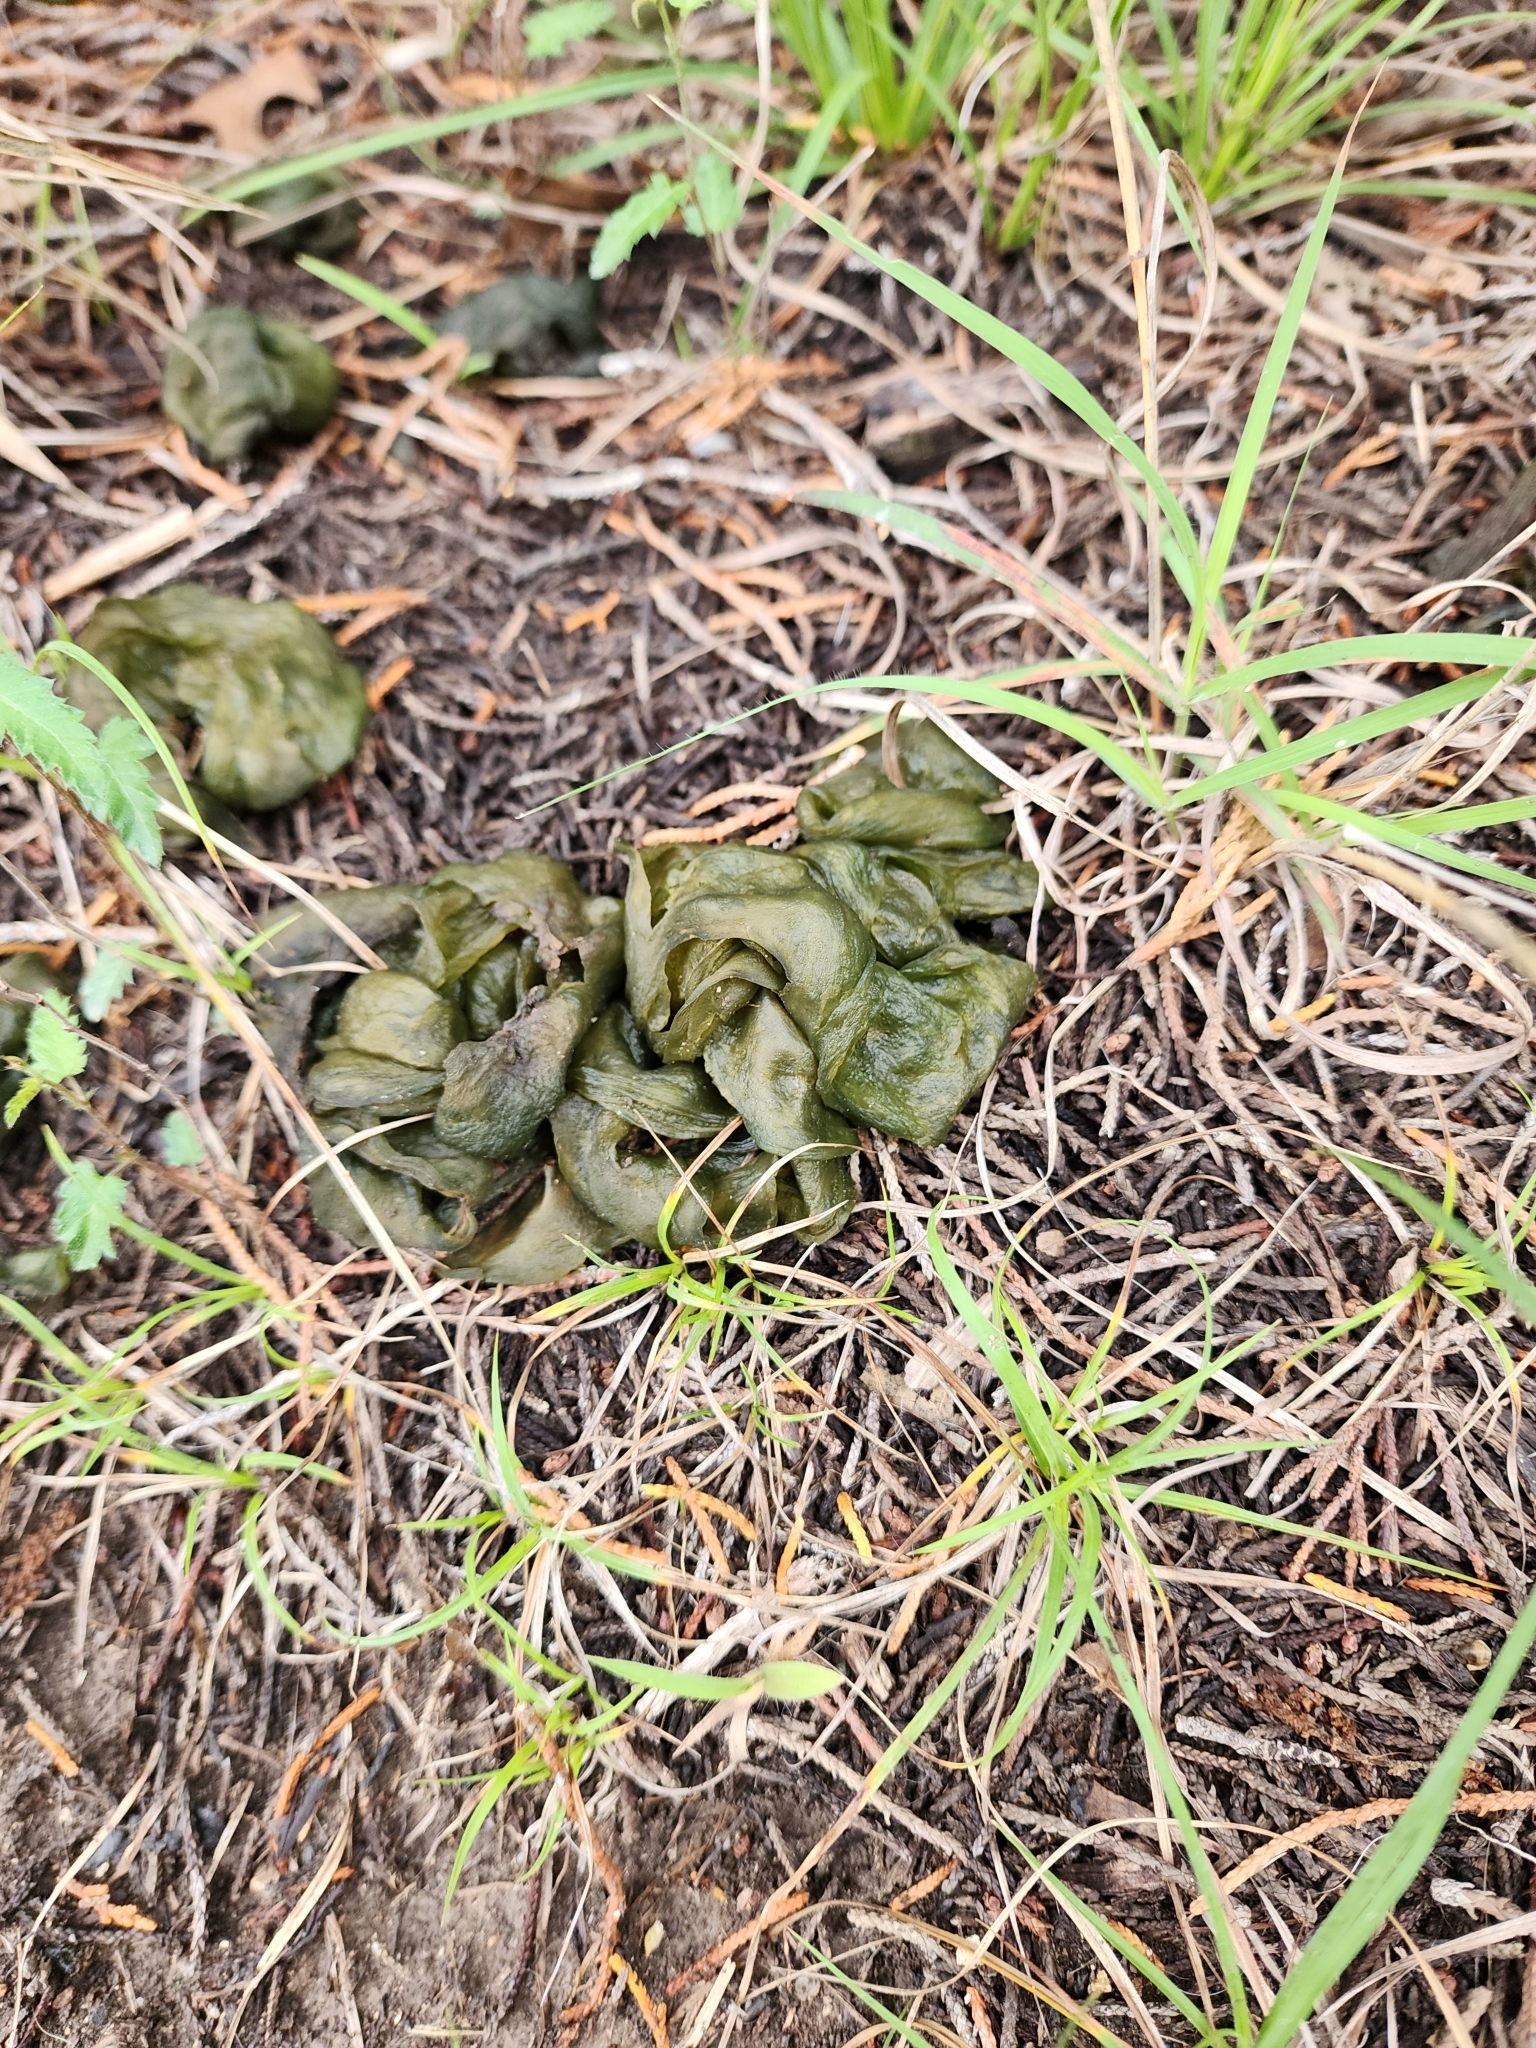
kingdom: Bacteria
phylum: Cyanobacteria
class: Cyanobacteriia
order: Cyanobacteriales
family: Nostocaceae
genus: Nostoc
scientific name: Nostoc commune
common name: Star jelly
